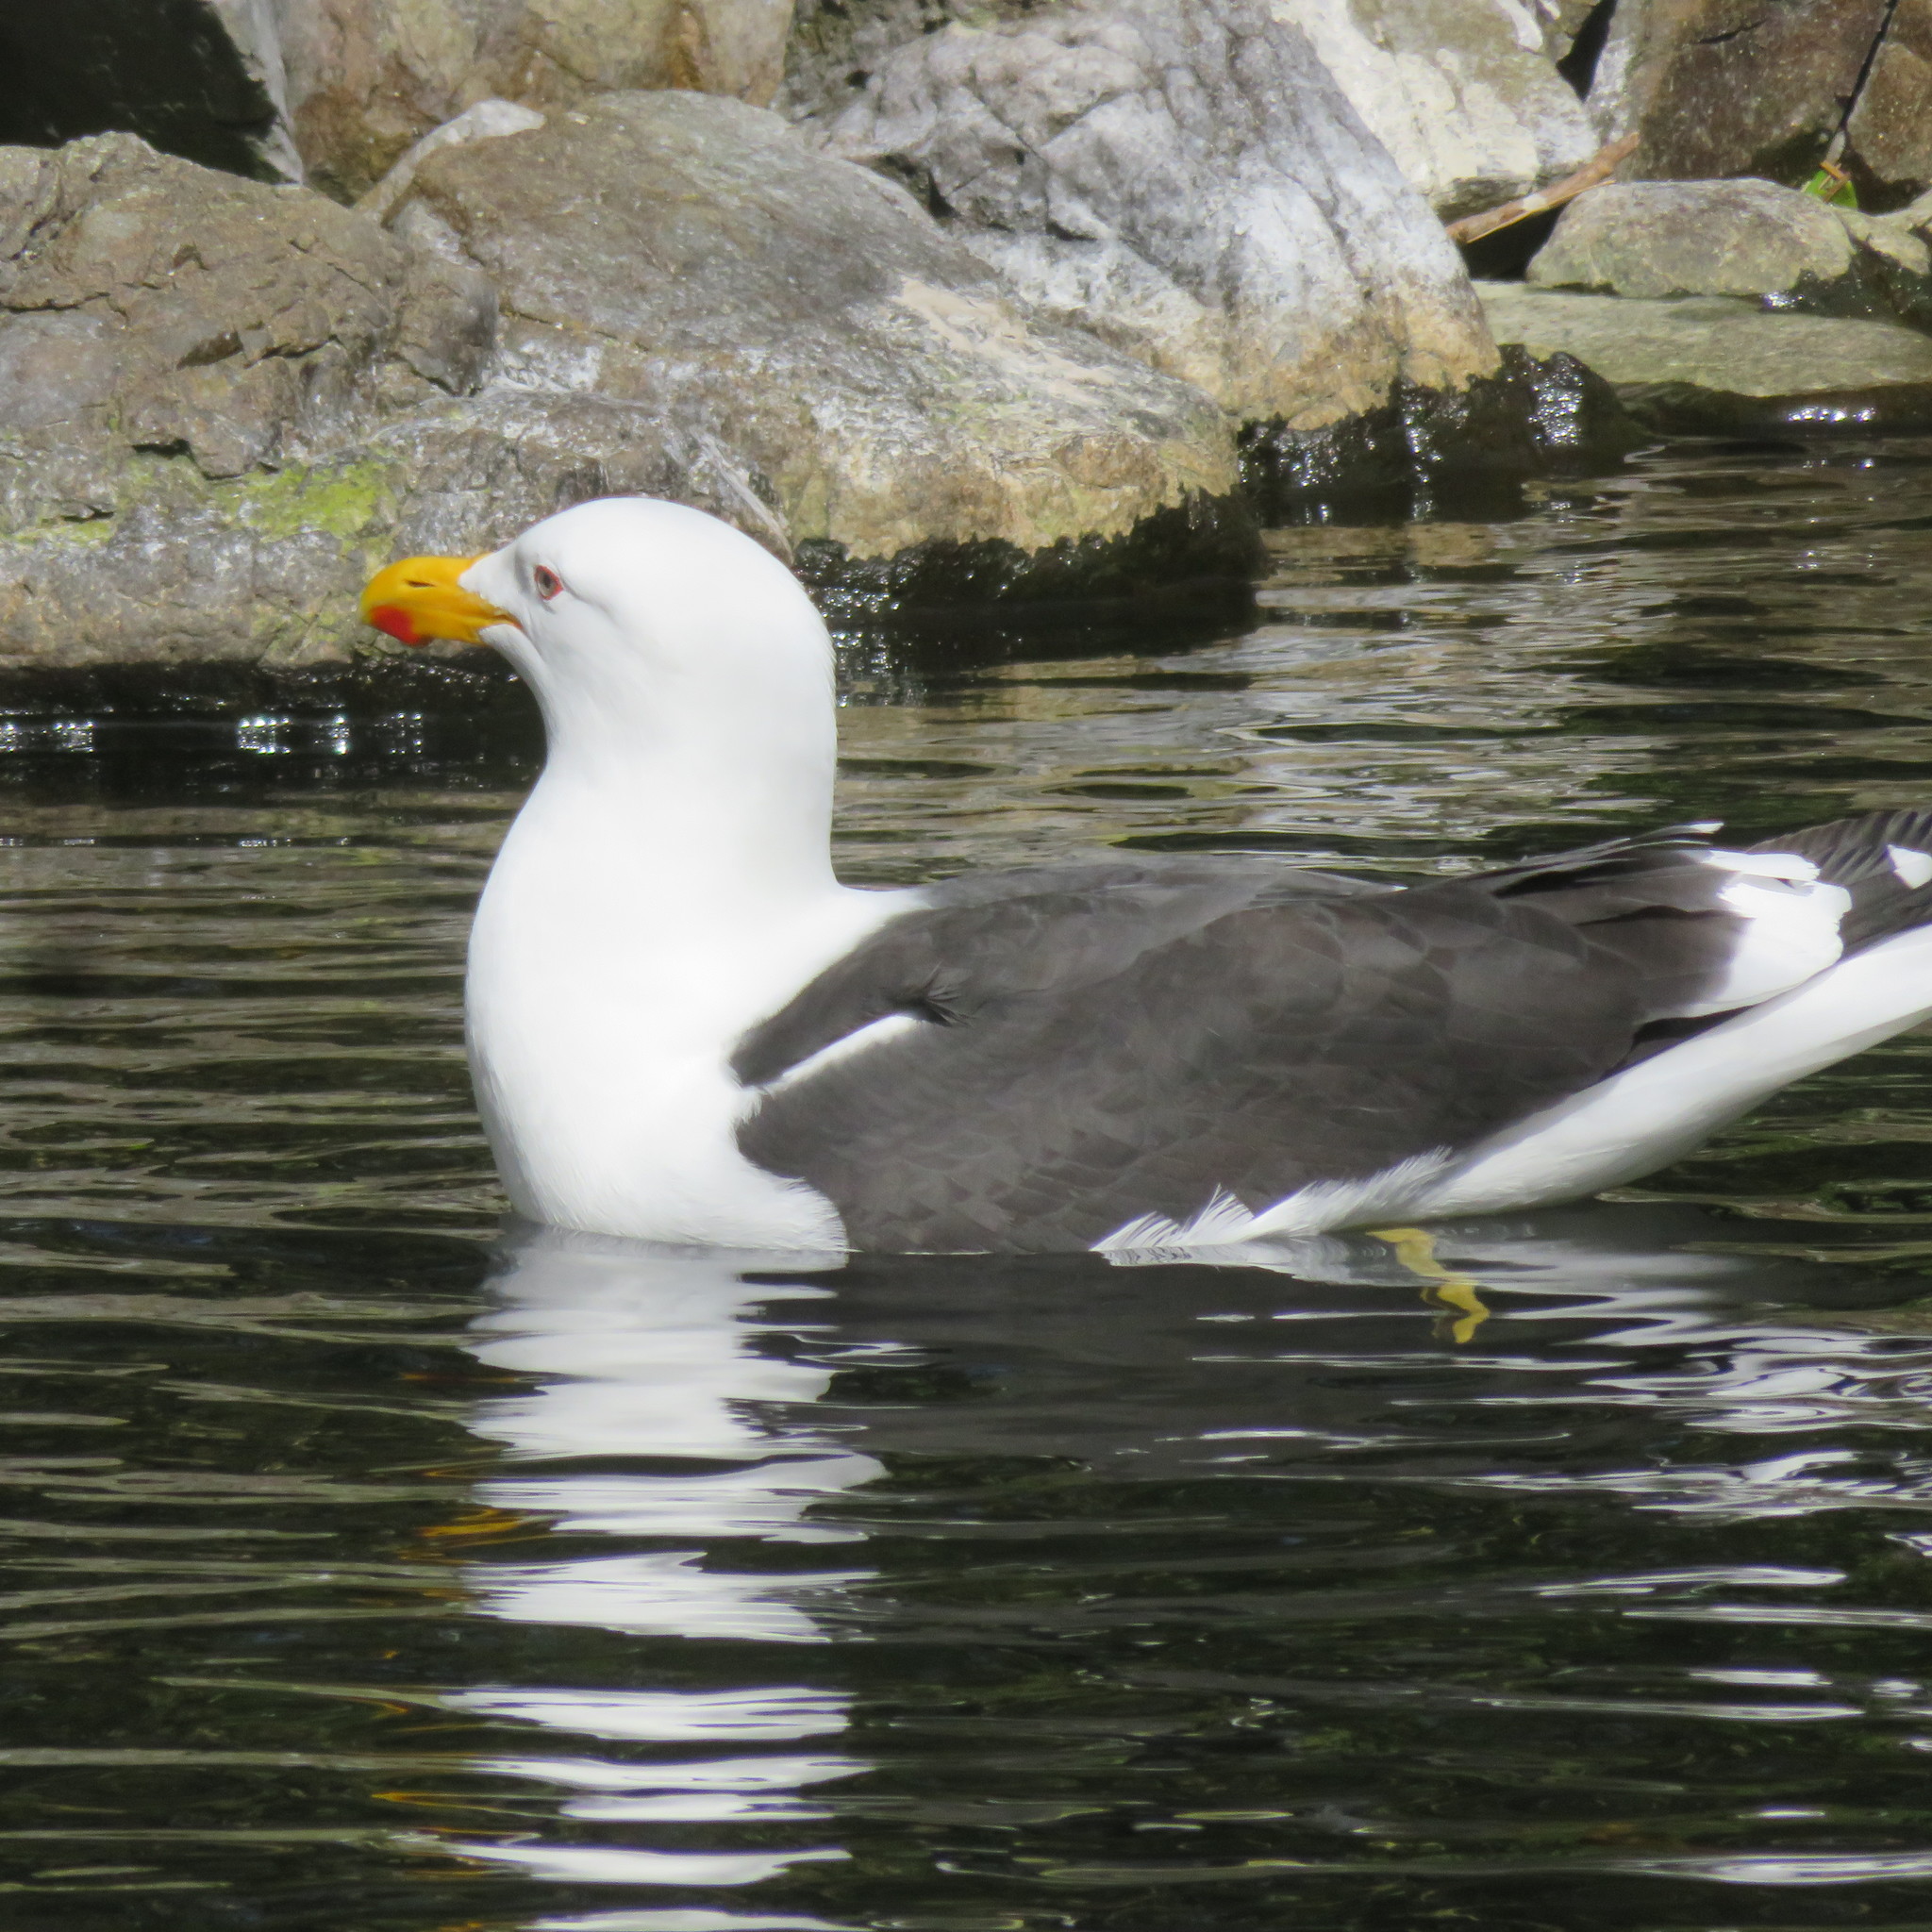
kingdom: Animalia
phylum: Chordata
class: Aves
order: Charadriiformes
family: Laridae
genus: Larus
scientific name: Larus dominicanus
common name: Kelp gull
